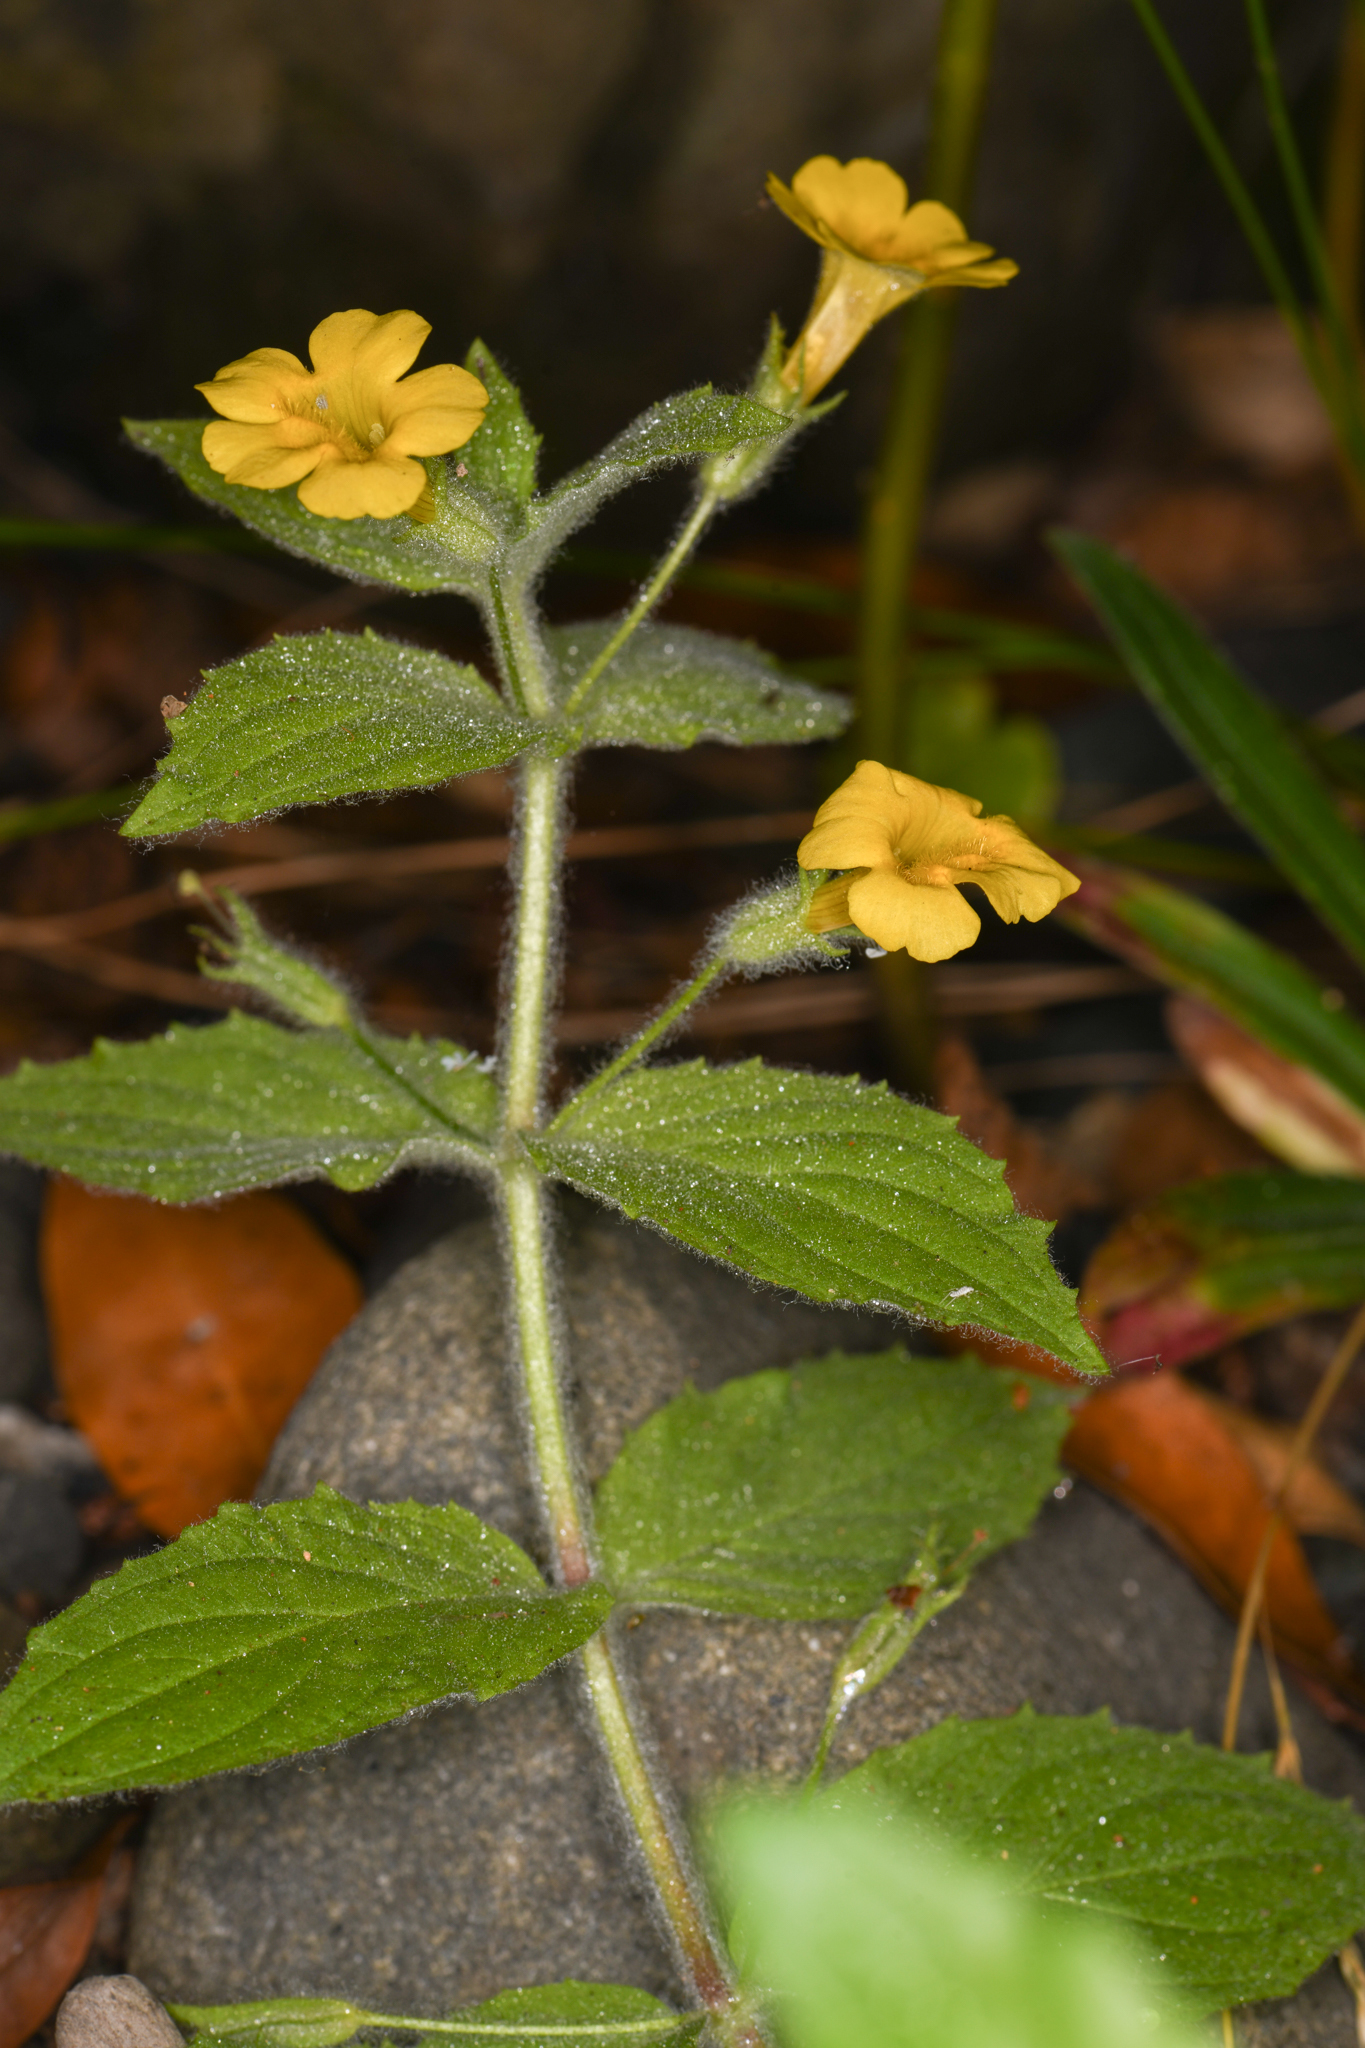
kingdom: Plantae
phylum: Tracheophyta
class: Magnoliopsida
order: Lamiales
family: Phrymaceae
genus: Erythranthe
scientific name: Erythranthe ptilota
